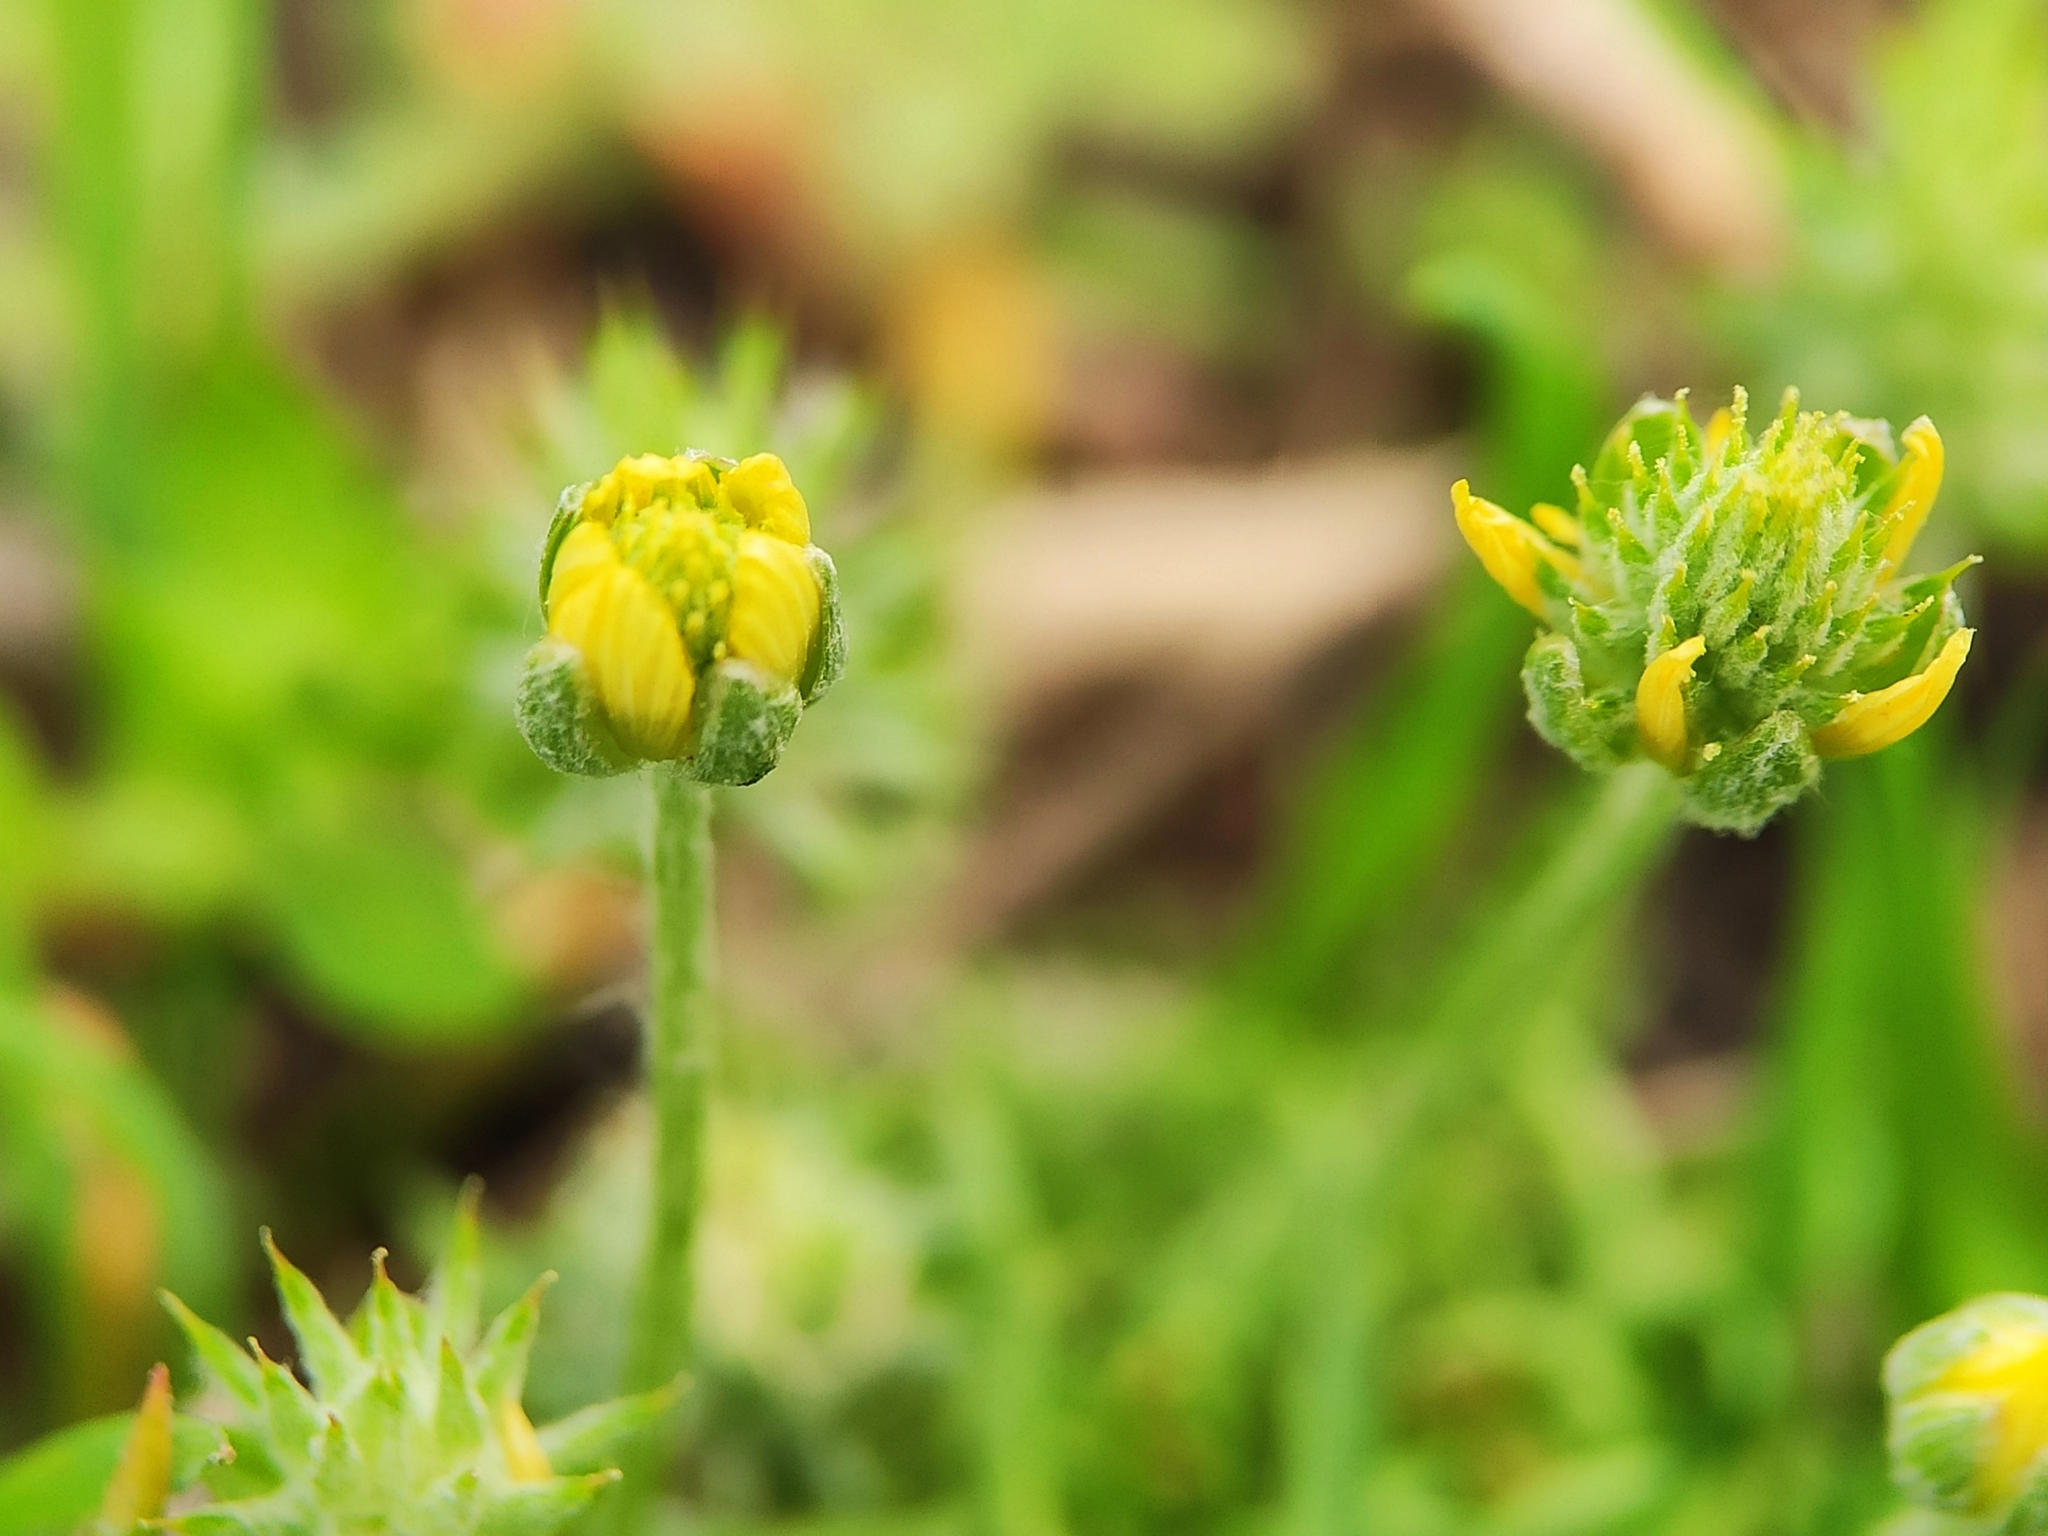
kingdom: Plantae
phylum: Tracheophyta
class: Magnoliopsida
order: Ranunculales
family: Ranunculaceae
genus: Ceratocephala
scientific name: Ceratocephala orthoceras
